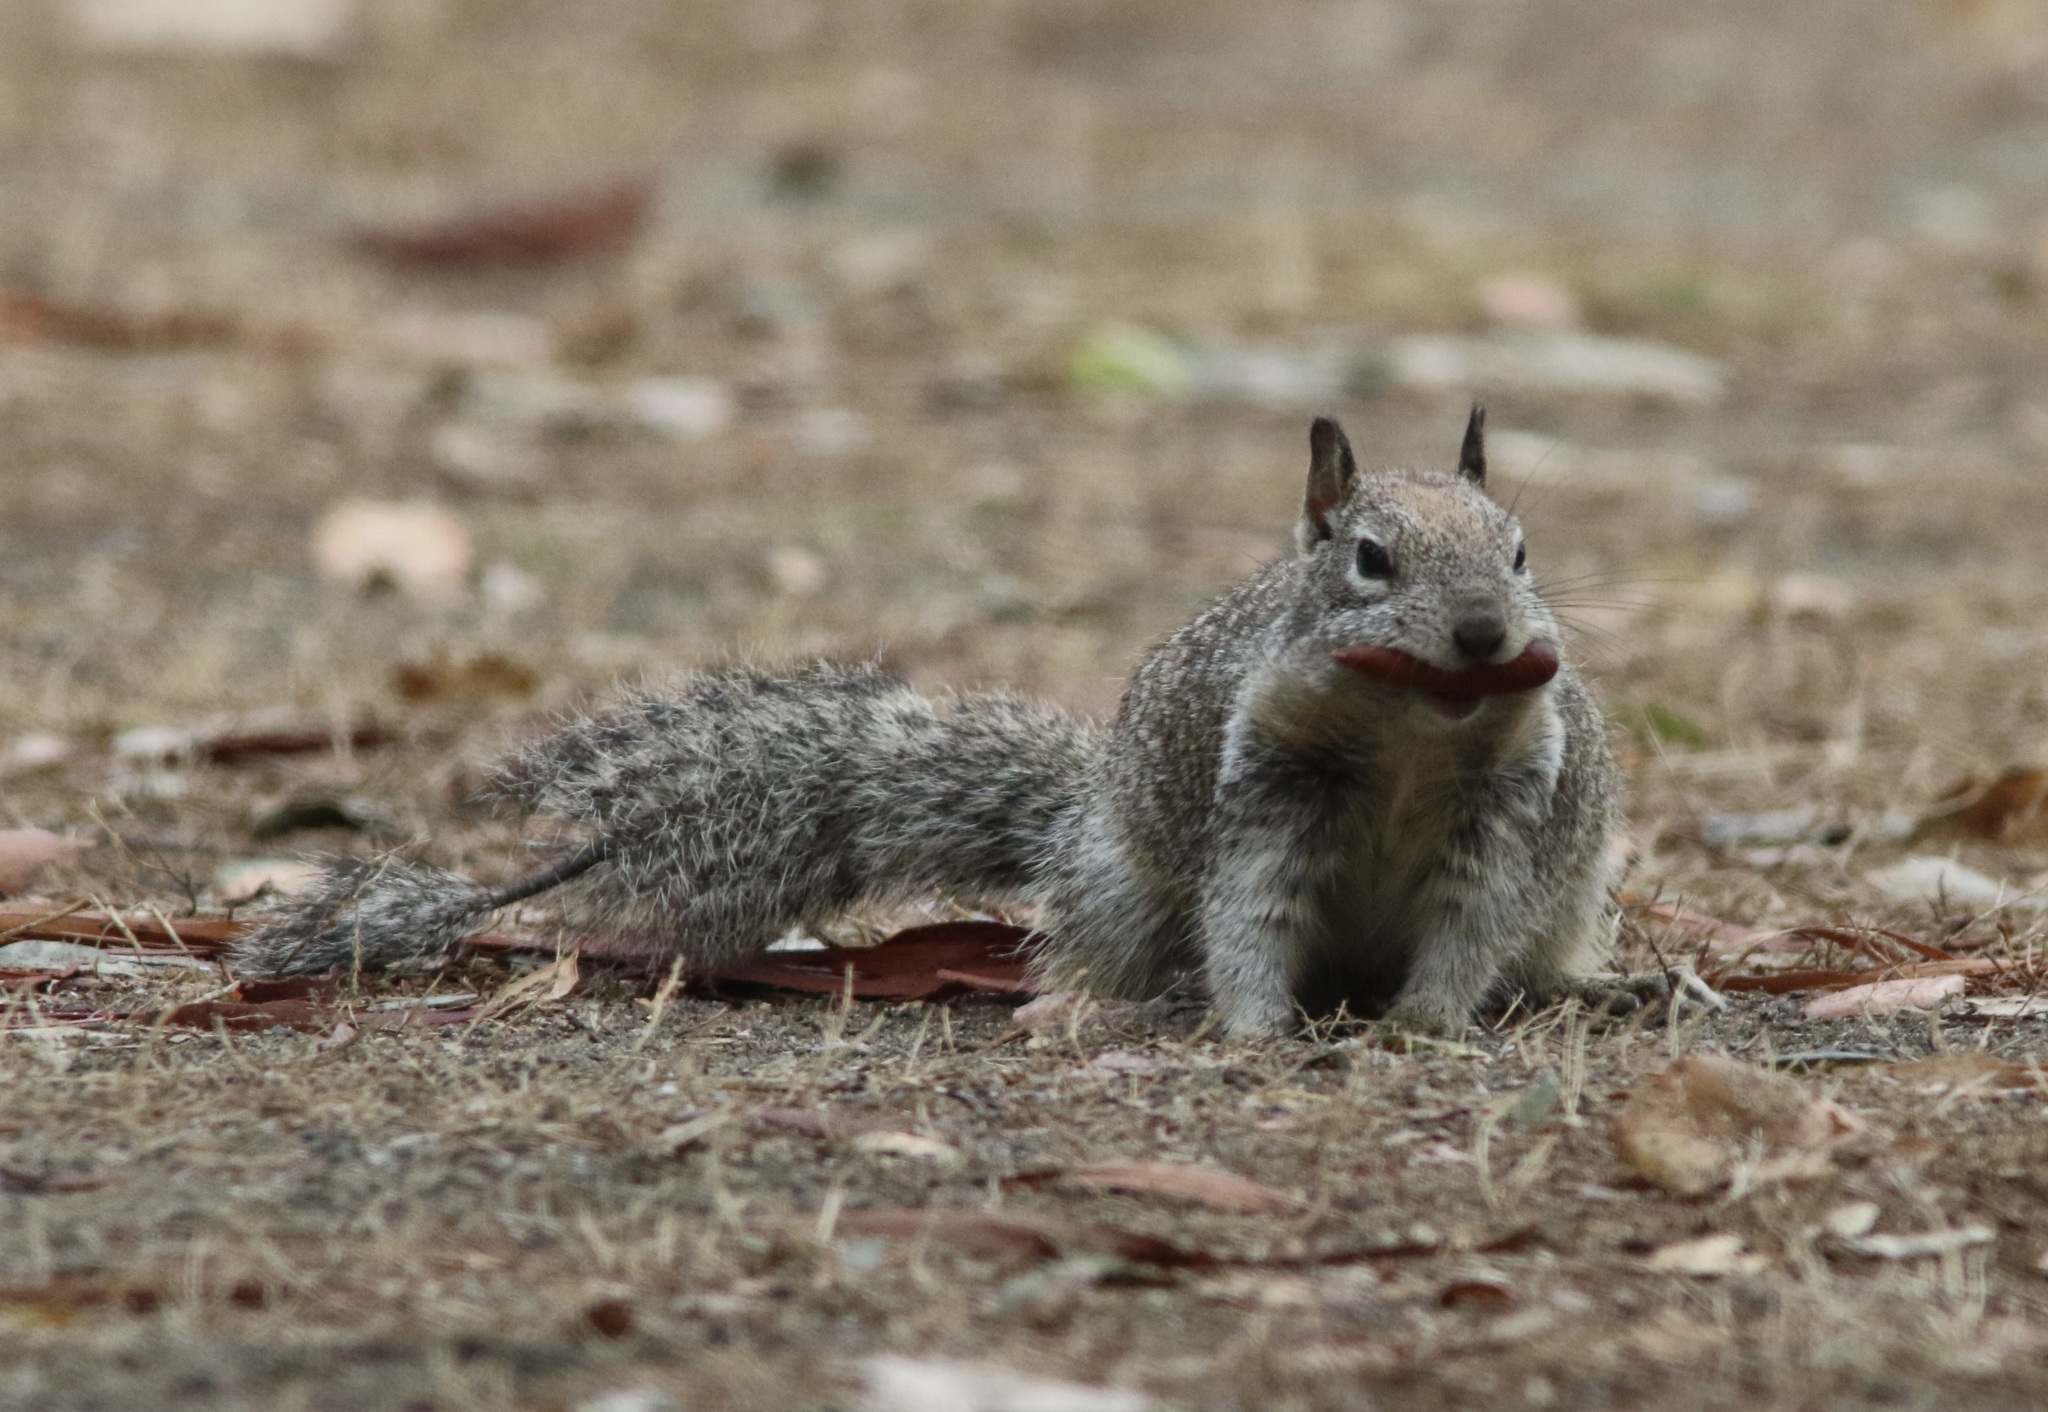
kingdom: Animalia
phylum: Chordata
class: Mammalia
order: Rodentia
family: Sciuridae
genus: Otospermophilus
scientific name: Otospermophilus beecheyi
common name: California ground squirrel
